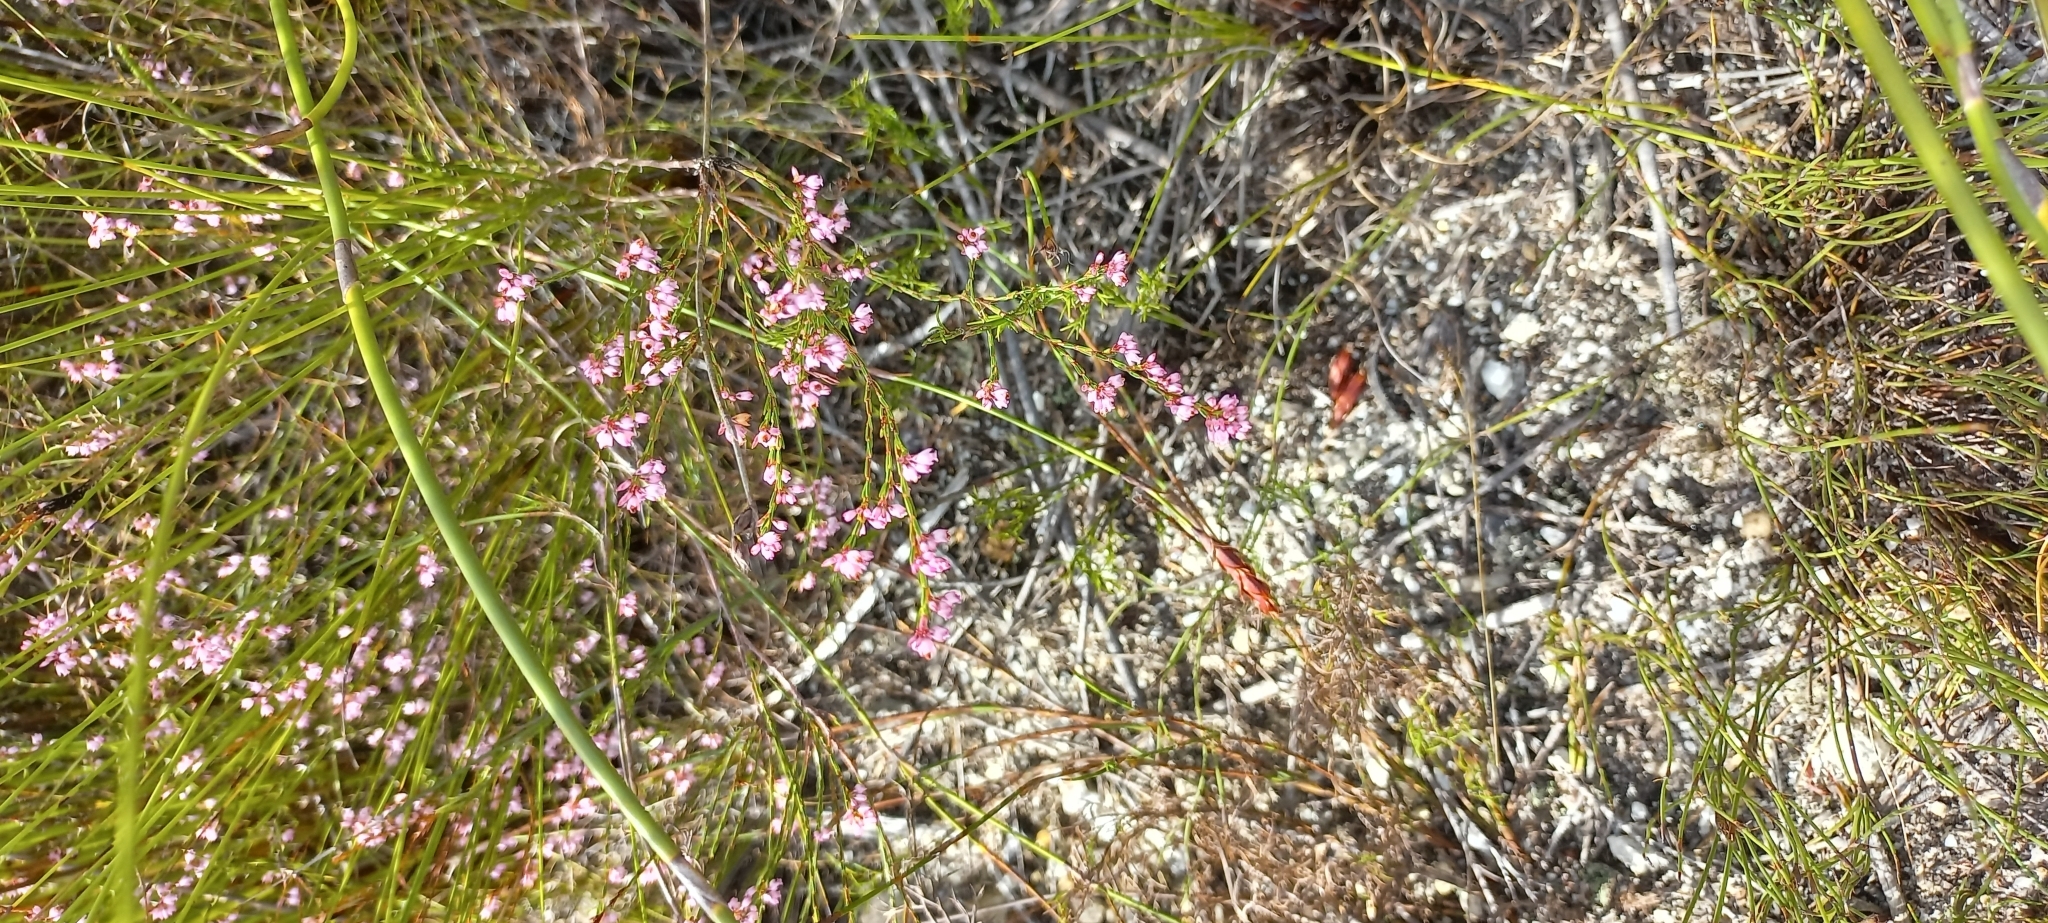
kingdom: Plantae
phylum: Tracheophyta
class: Magnoliopsida
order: Ericales
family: Ericaceae
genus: Erica
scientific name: Erica tenuifolia
